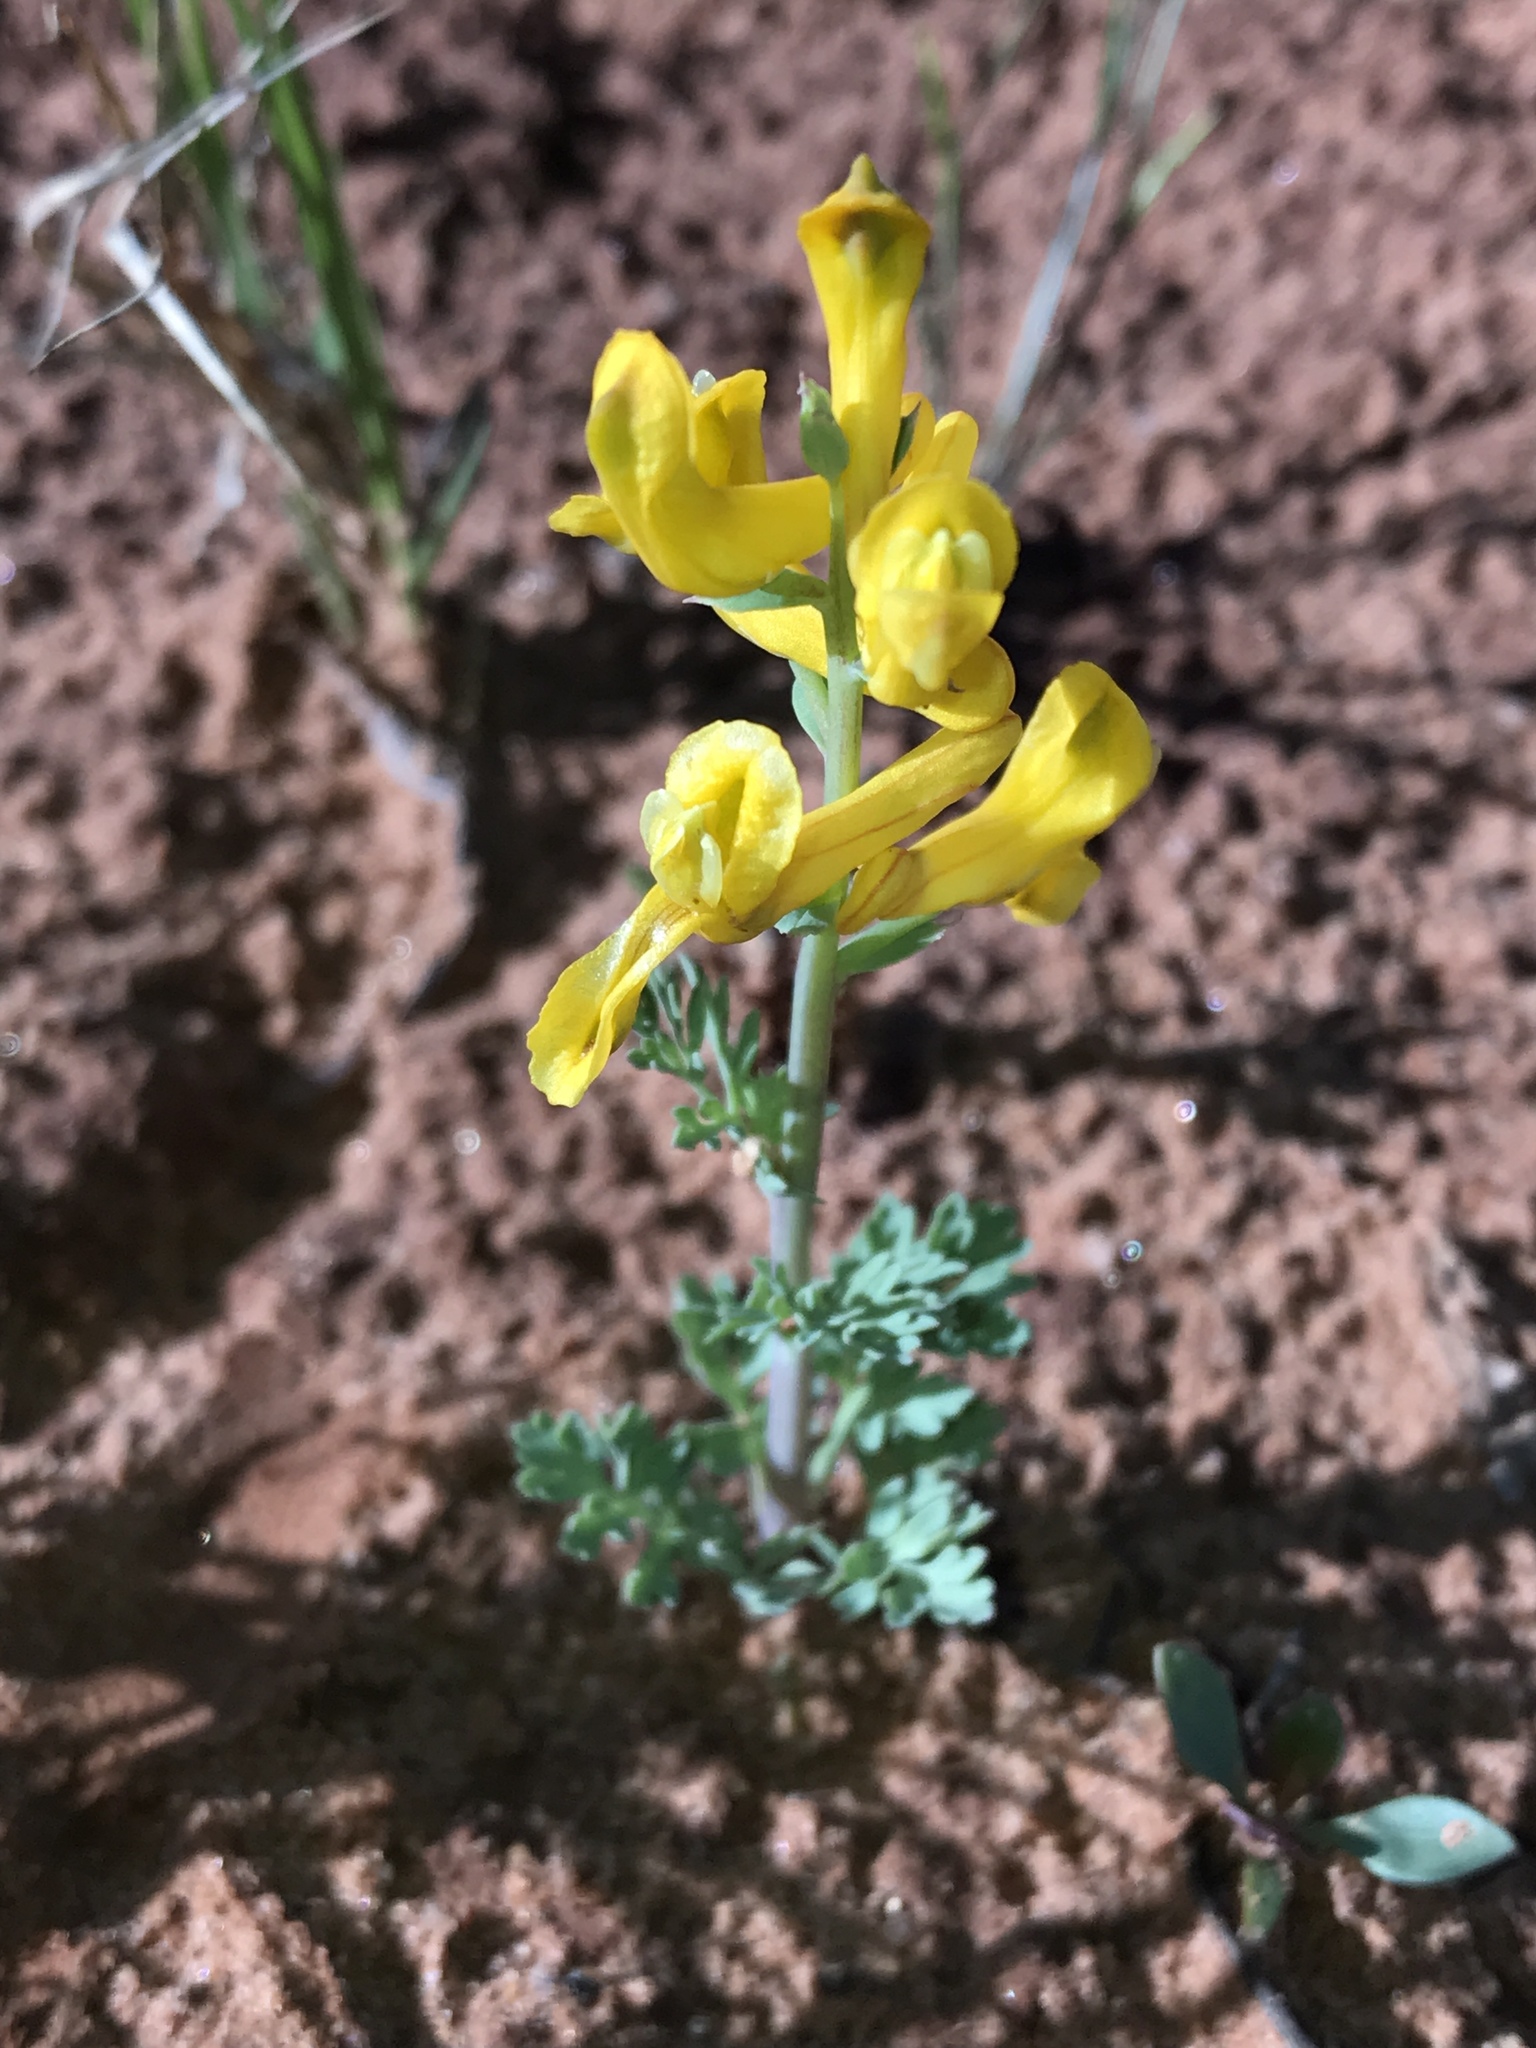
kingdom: Plantae
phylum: Tracheophyta
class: Magnoliopsida
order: Ranunculales
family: Papaveraceae
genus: Corydalis
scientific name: Corydalis aurea
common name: Golden corydalis
